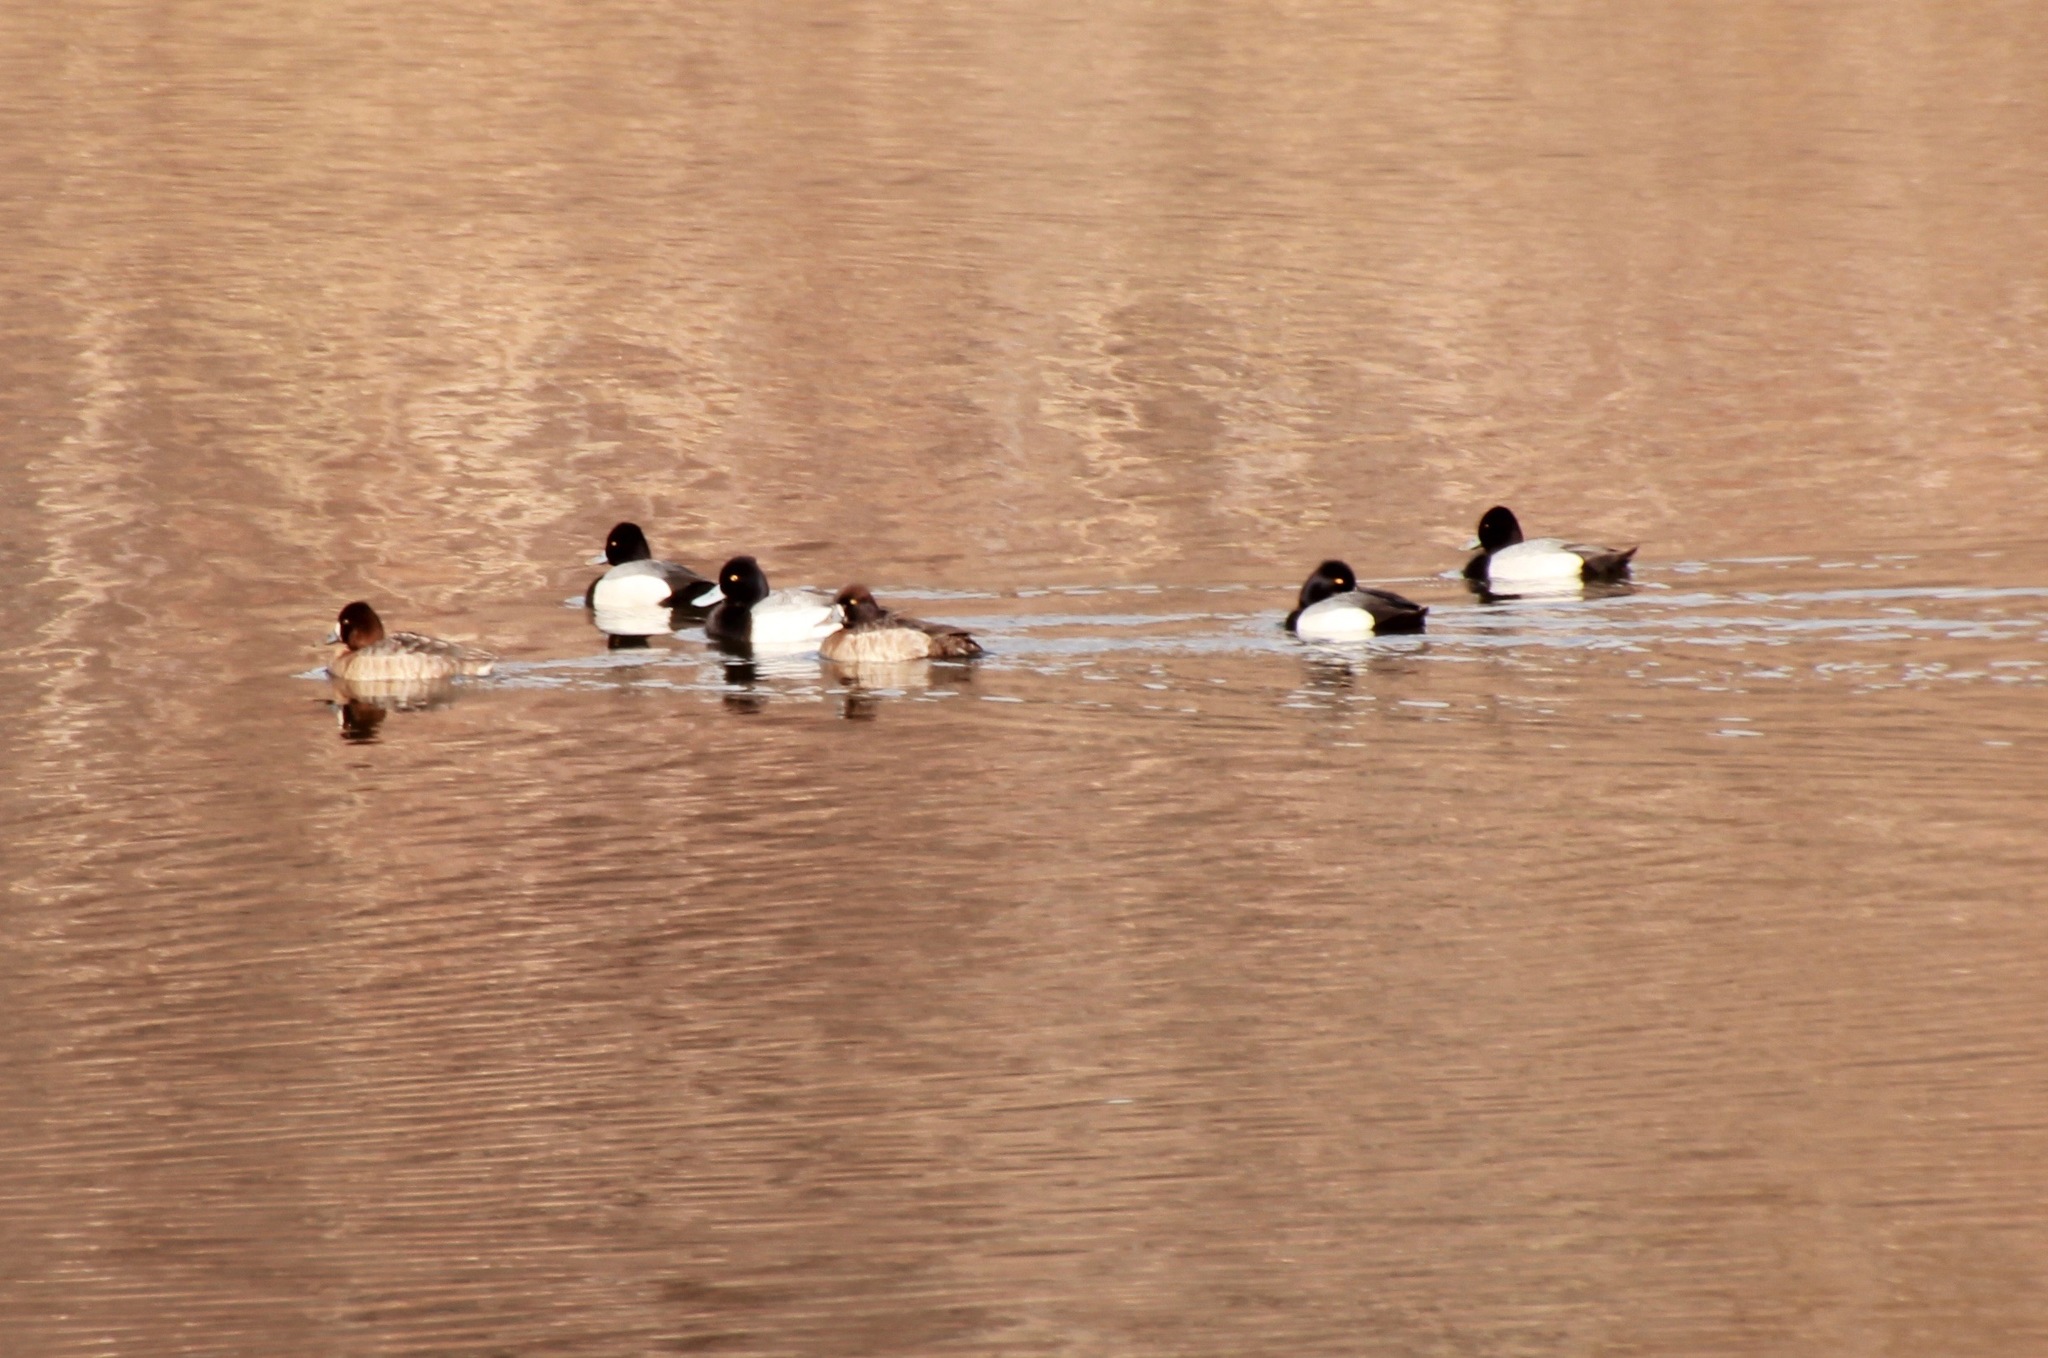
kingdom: Animalia
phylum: Chordata
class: Aves
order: Anseriformes
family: Anatidae
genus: Aythya
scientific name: Aythya affinis
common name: Lesser scaup
